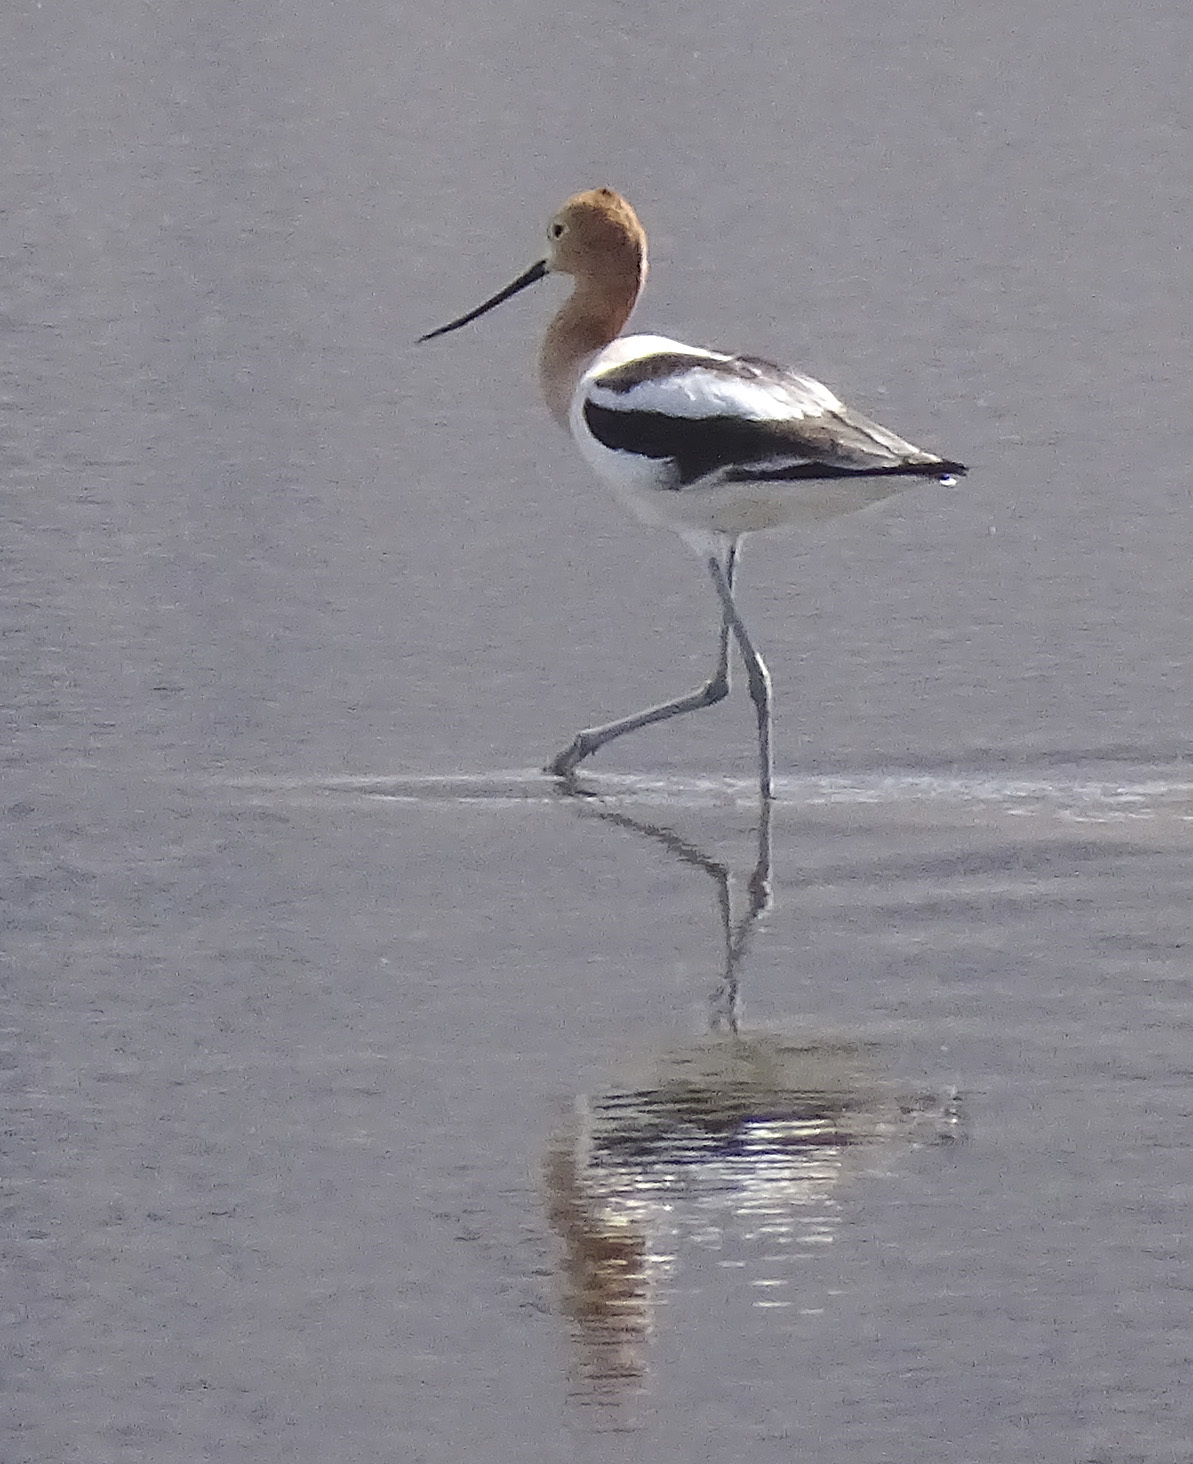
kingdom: Animalia
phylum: Chordata
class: Aves
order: Charadriiformes
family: Recurvirostridae
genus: Recurvirostra
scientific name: Recurvirostra americana
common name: American avocet
